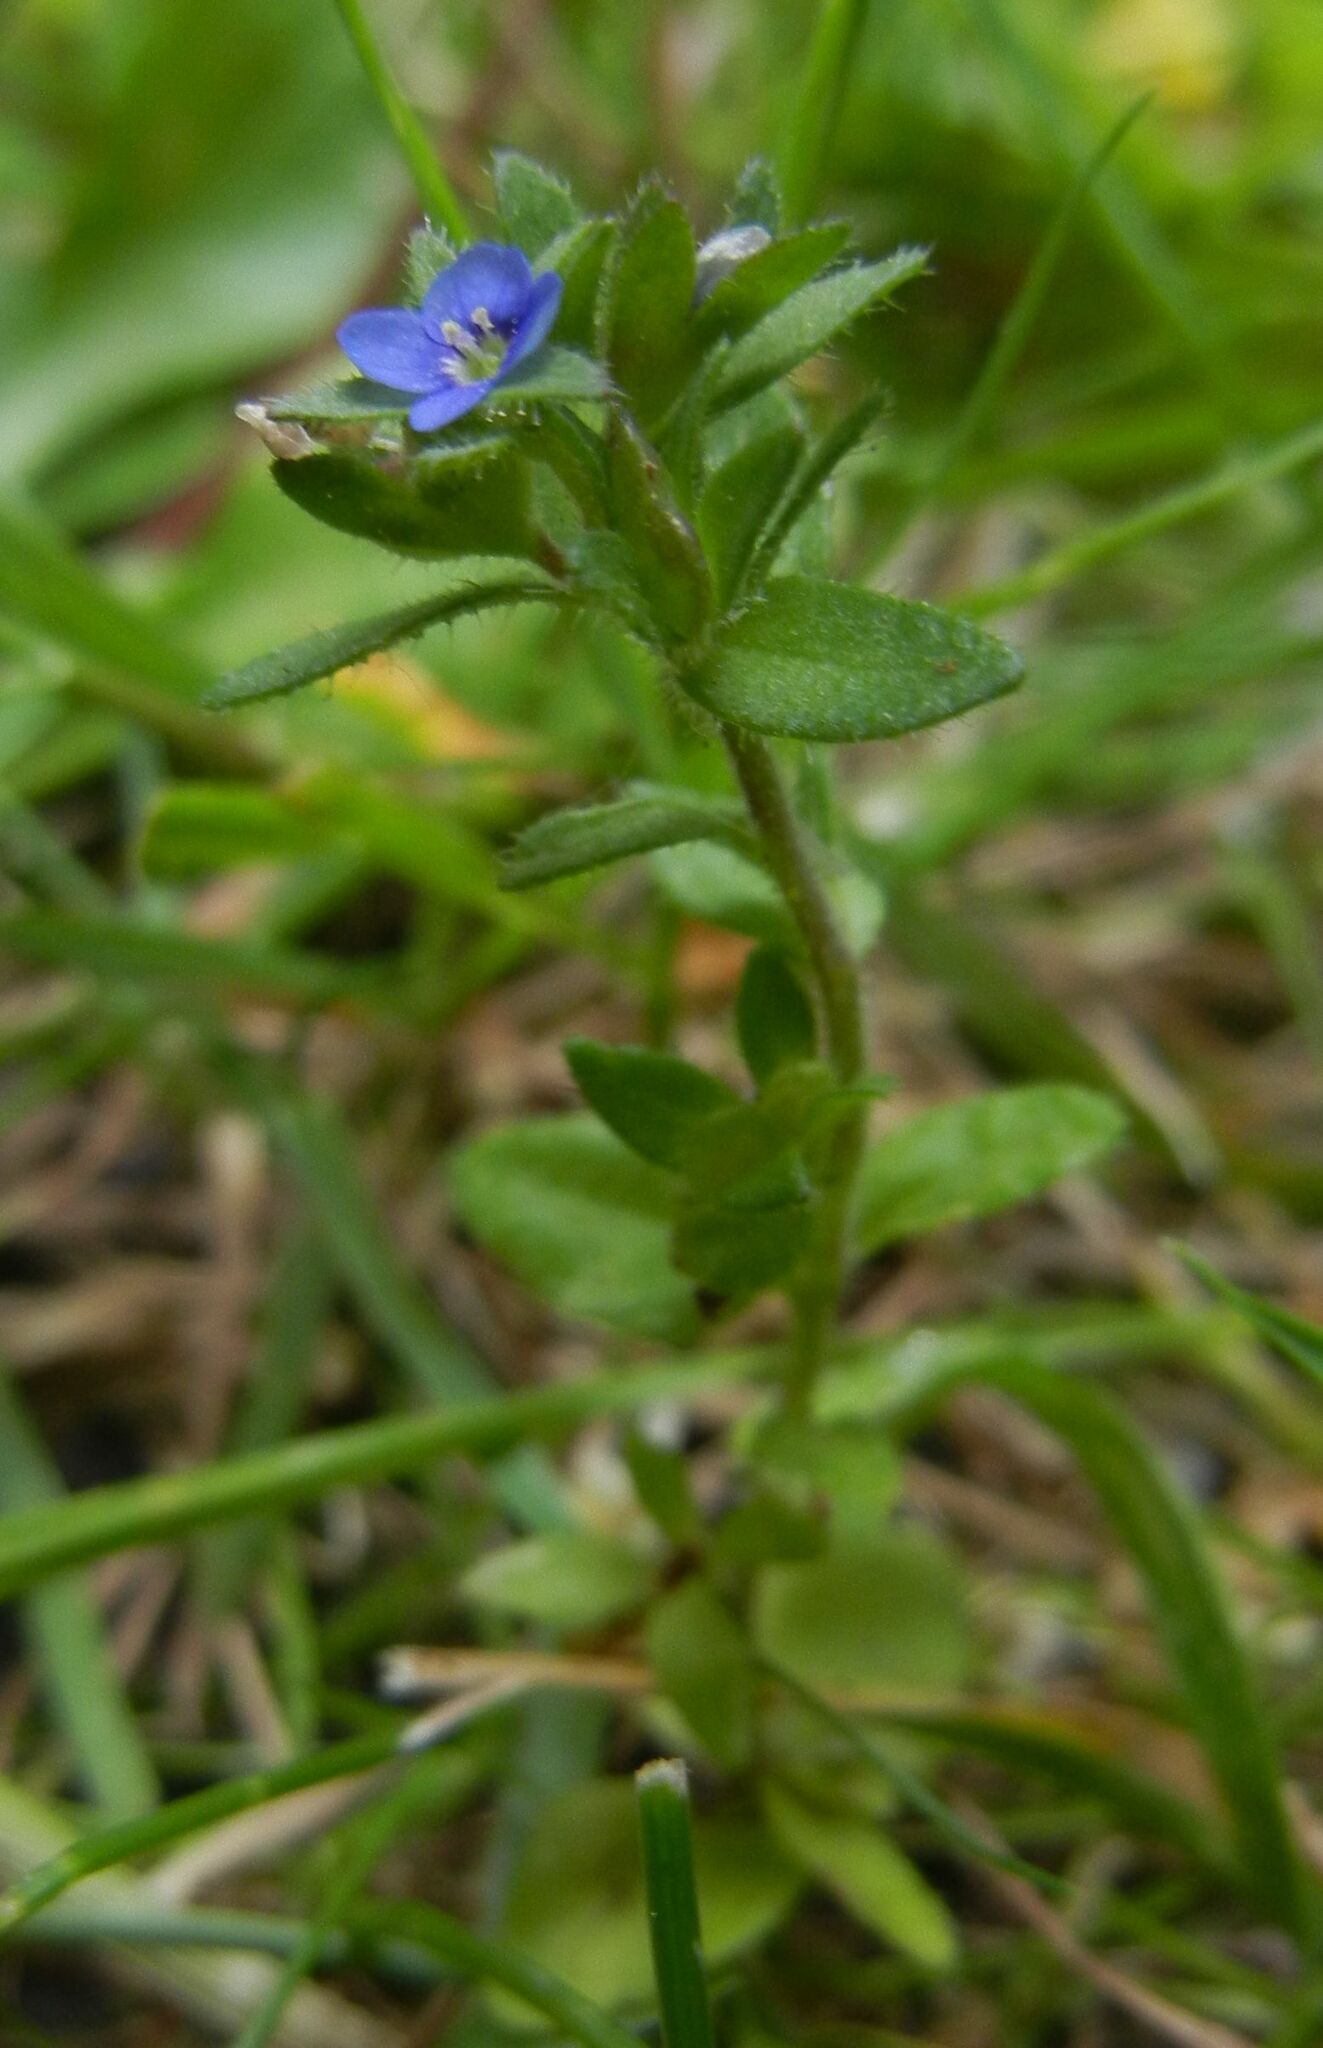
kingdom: Plantae
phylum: Tracheophyta
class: Magnoliopsida
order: Lamiales
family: Plantaginaceae
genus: Veronica
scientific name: Veronica arvensis
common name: Corn speedwell
